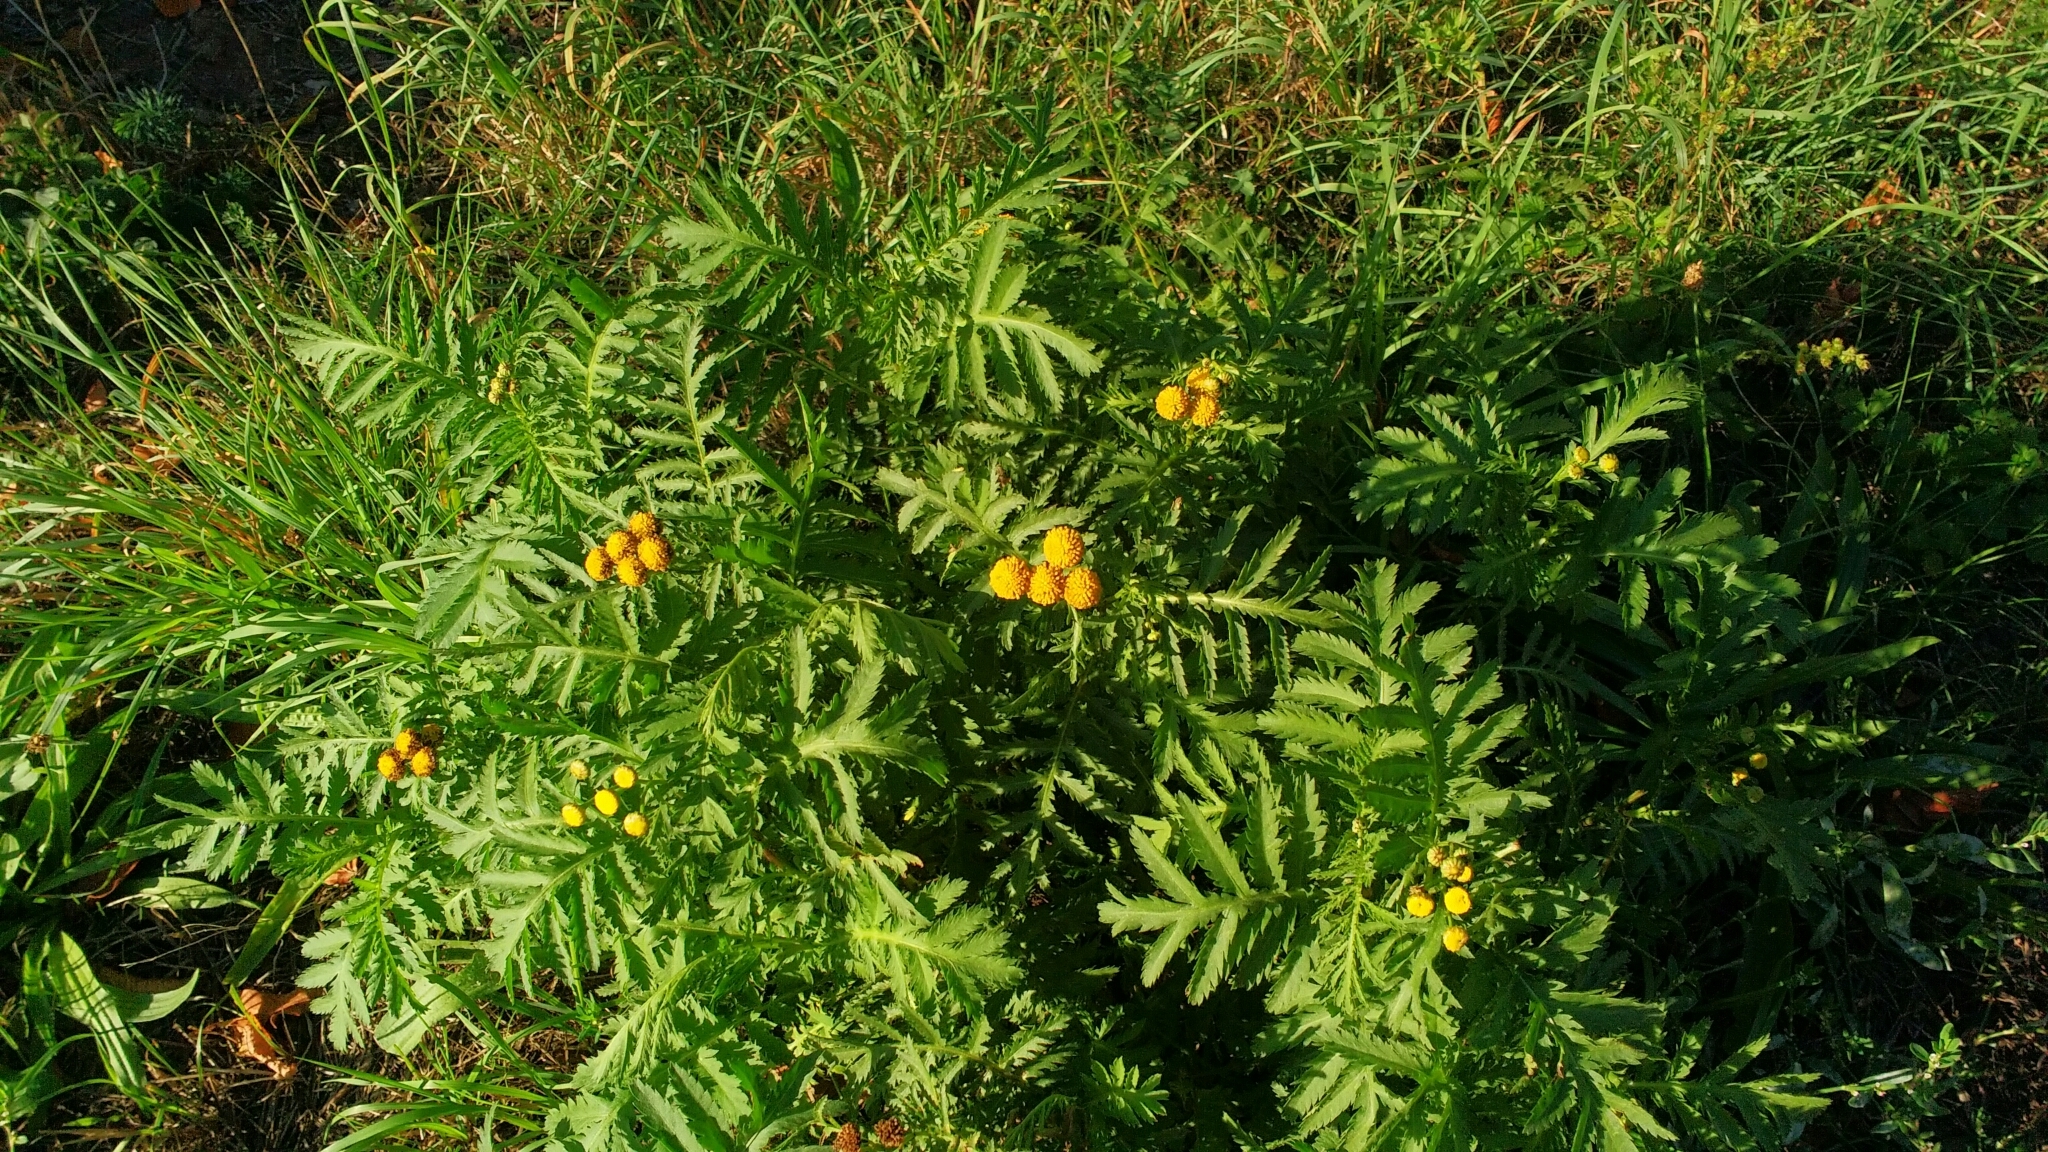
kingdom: Plantae
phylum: Tracheophyta
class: Magnoliopsida
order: Asterales
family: Asteraceae
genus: Tanacetum
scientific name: Tanacetum vulgare
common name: Common tansy
